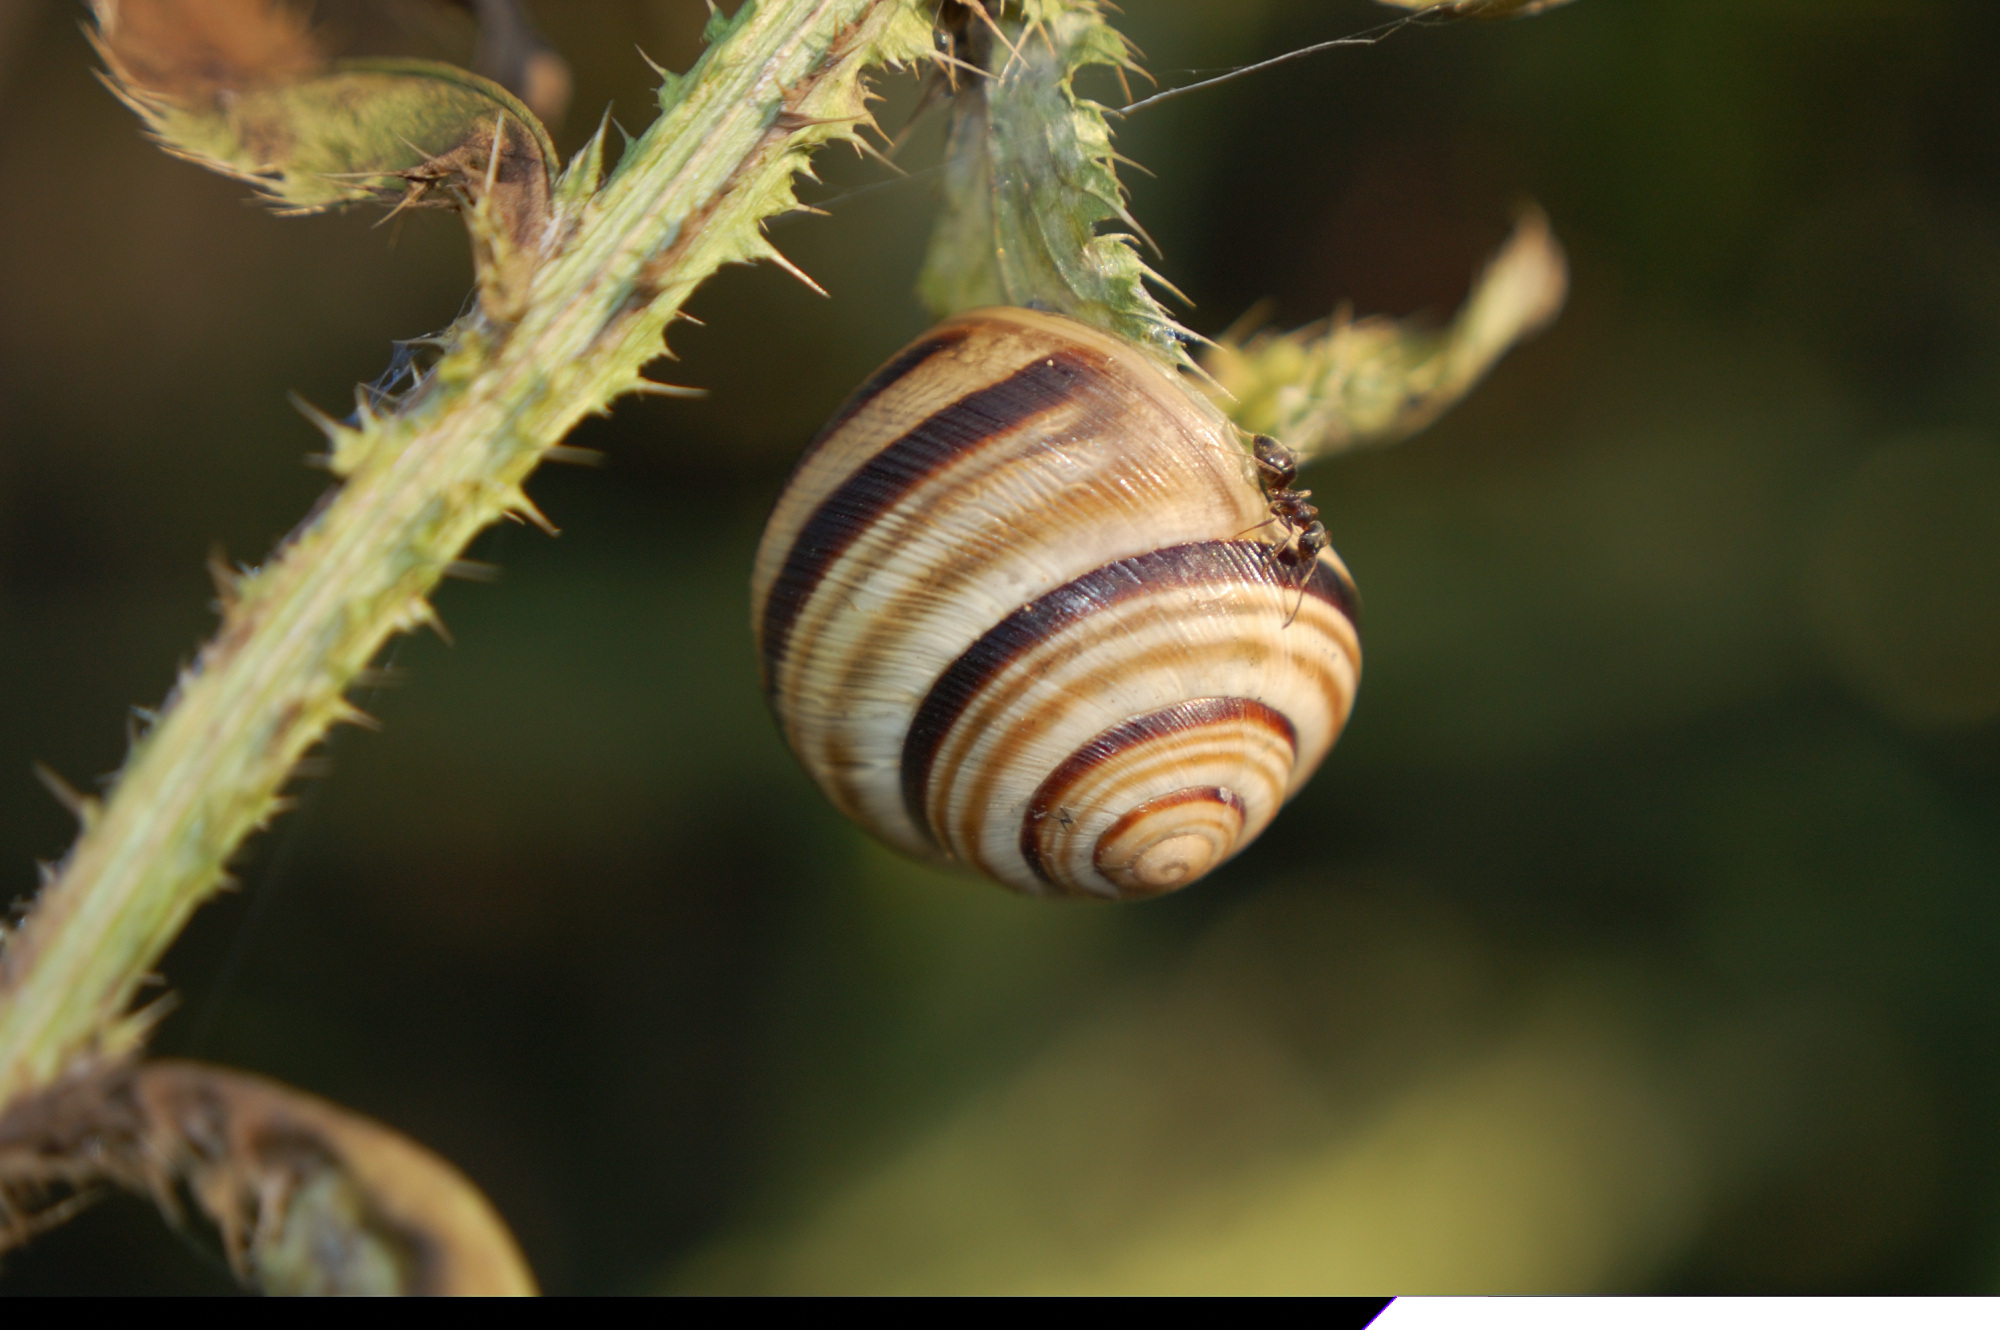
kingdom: Animalia
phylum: Mollusca
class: Gastropoda
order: Stylommatophora
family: Helicidae
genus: Caucasotachea
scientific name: Caucasotachea vindobonensis
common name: European helicid land snail
